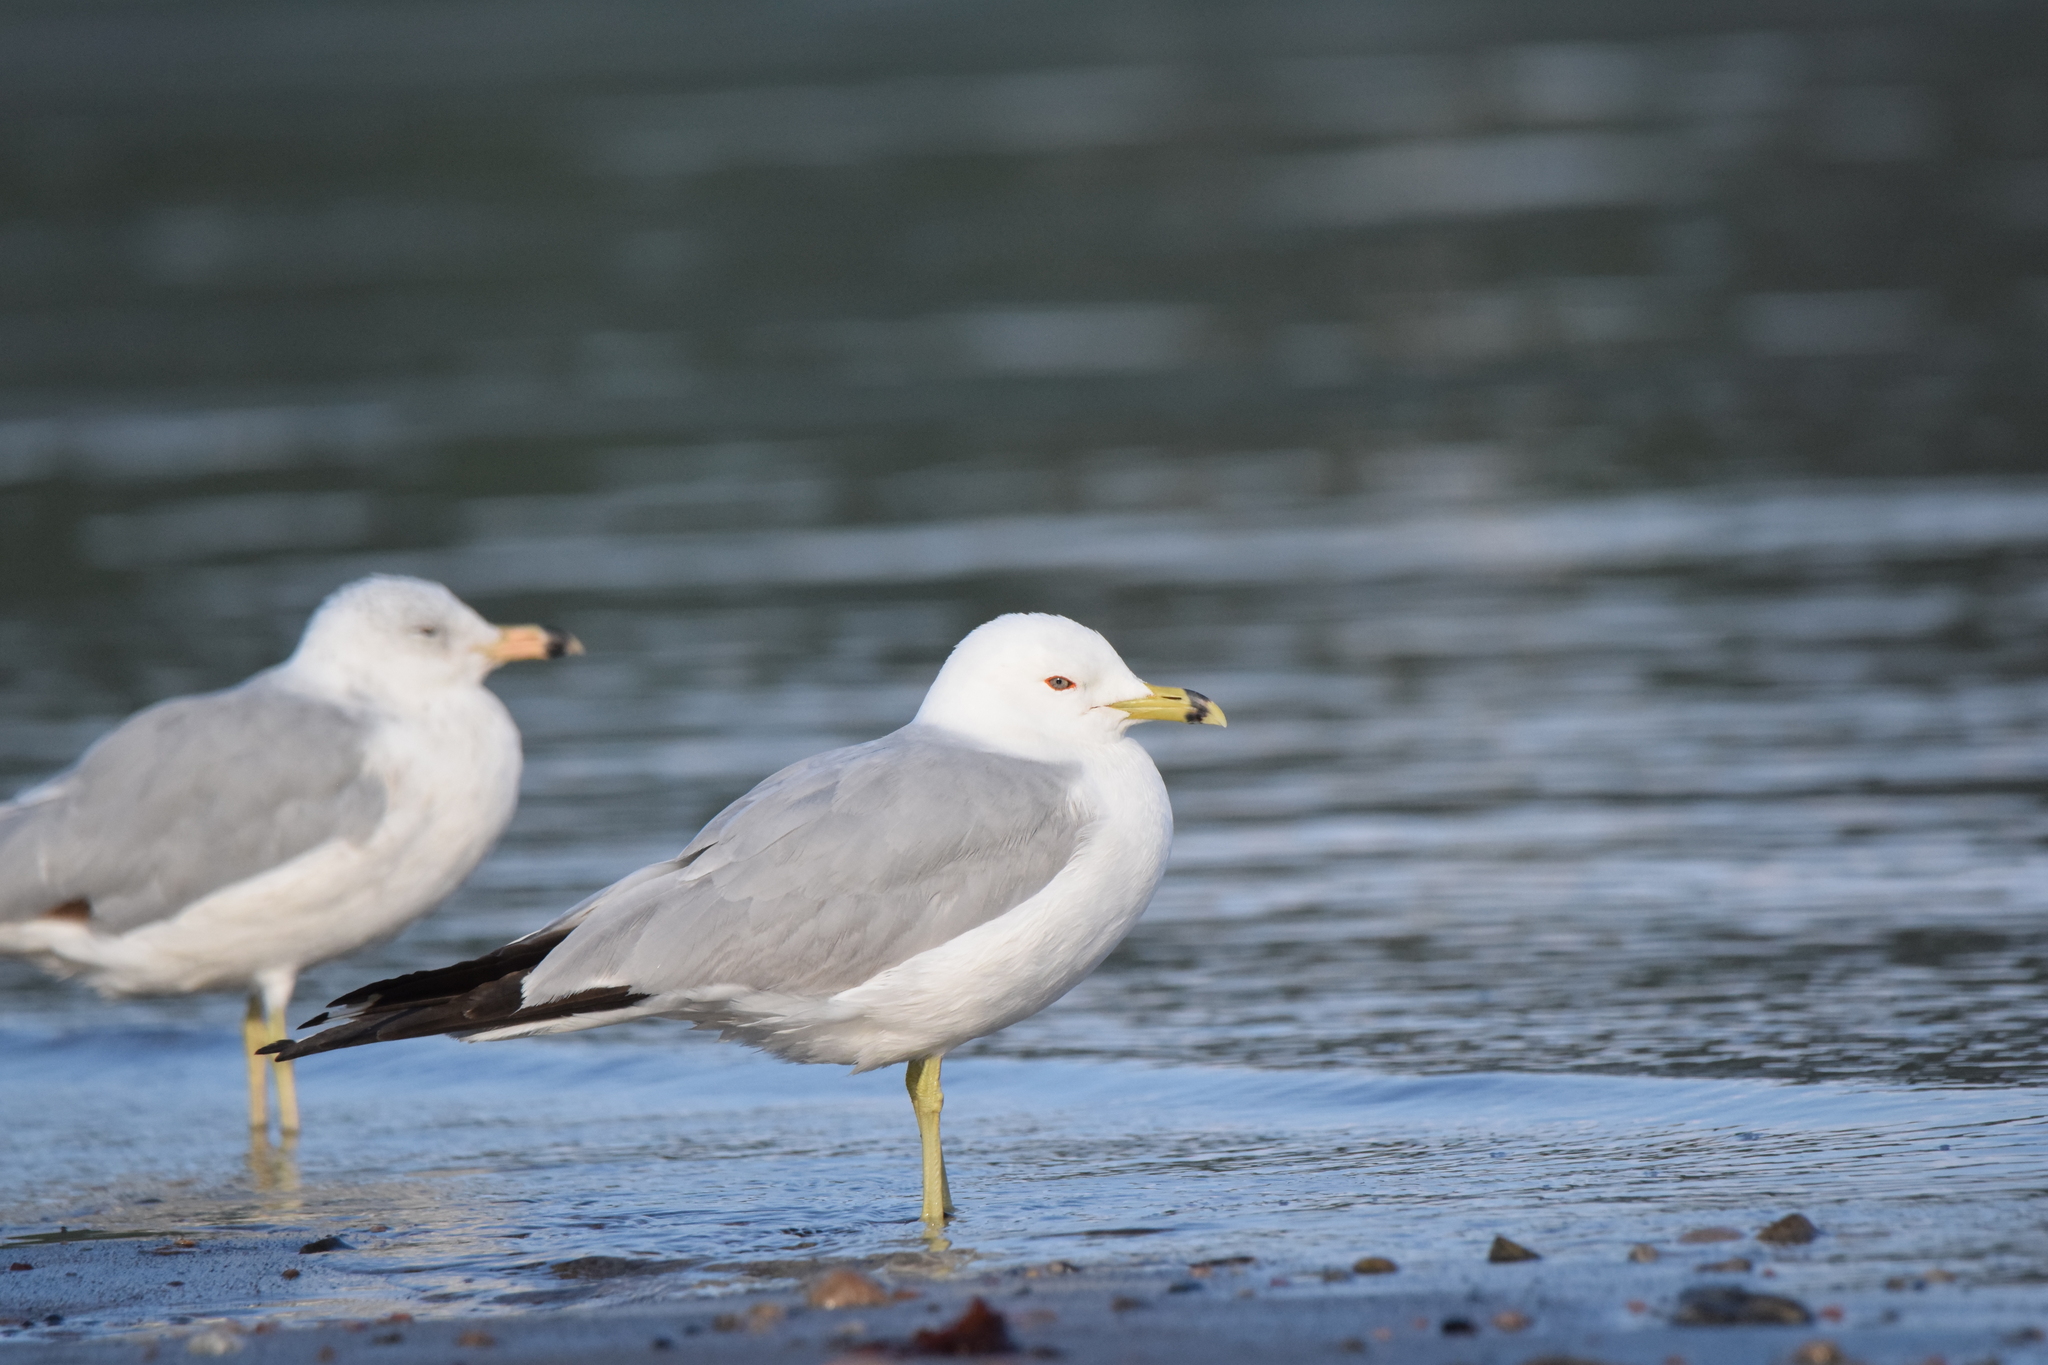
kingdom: Animalia
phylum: Chordata
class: Aves
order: Charadriiformes
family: Laridae
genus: Larus
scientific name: Larus delawarensis
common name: Ring-billed gull
